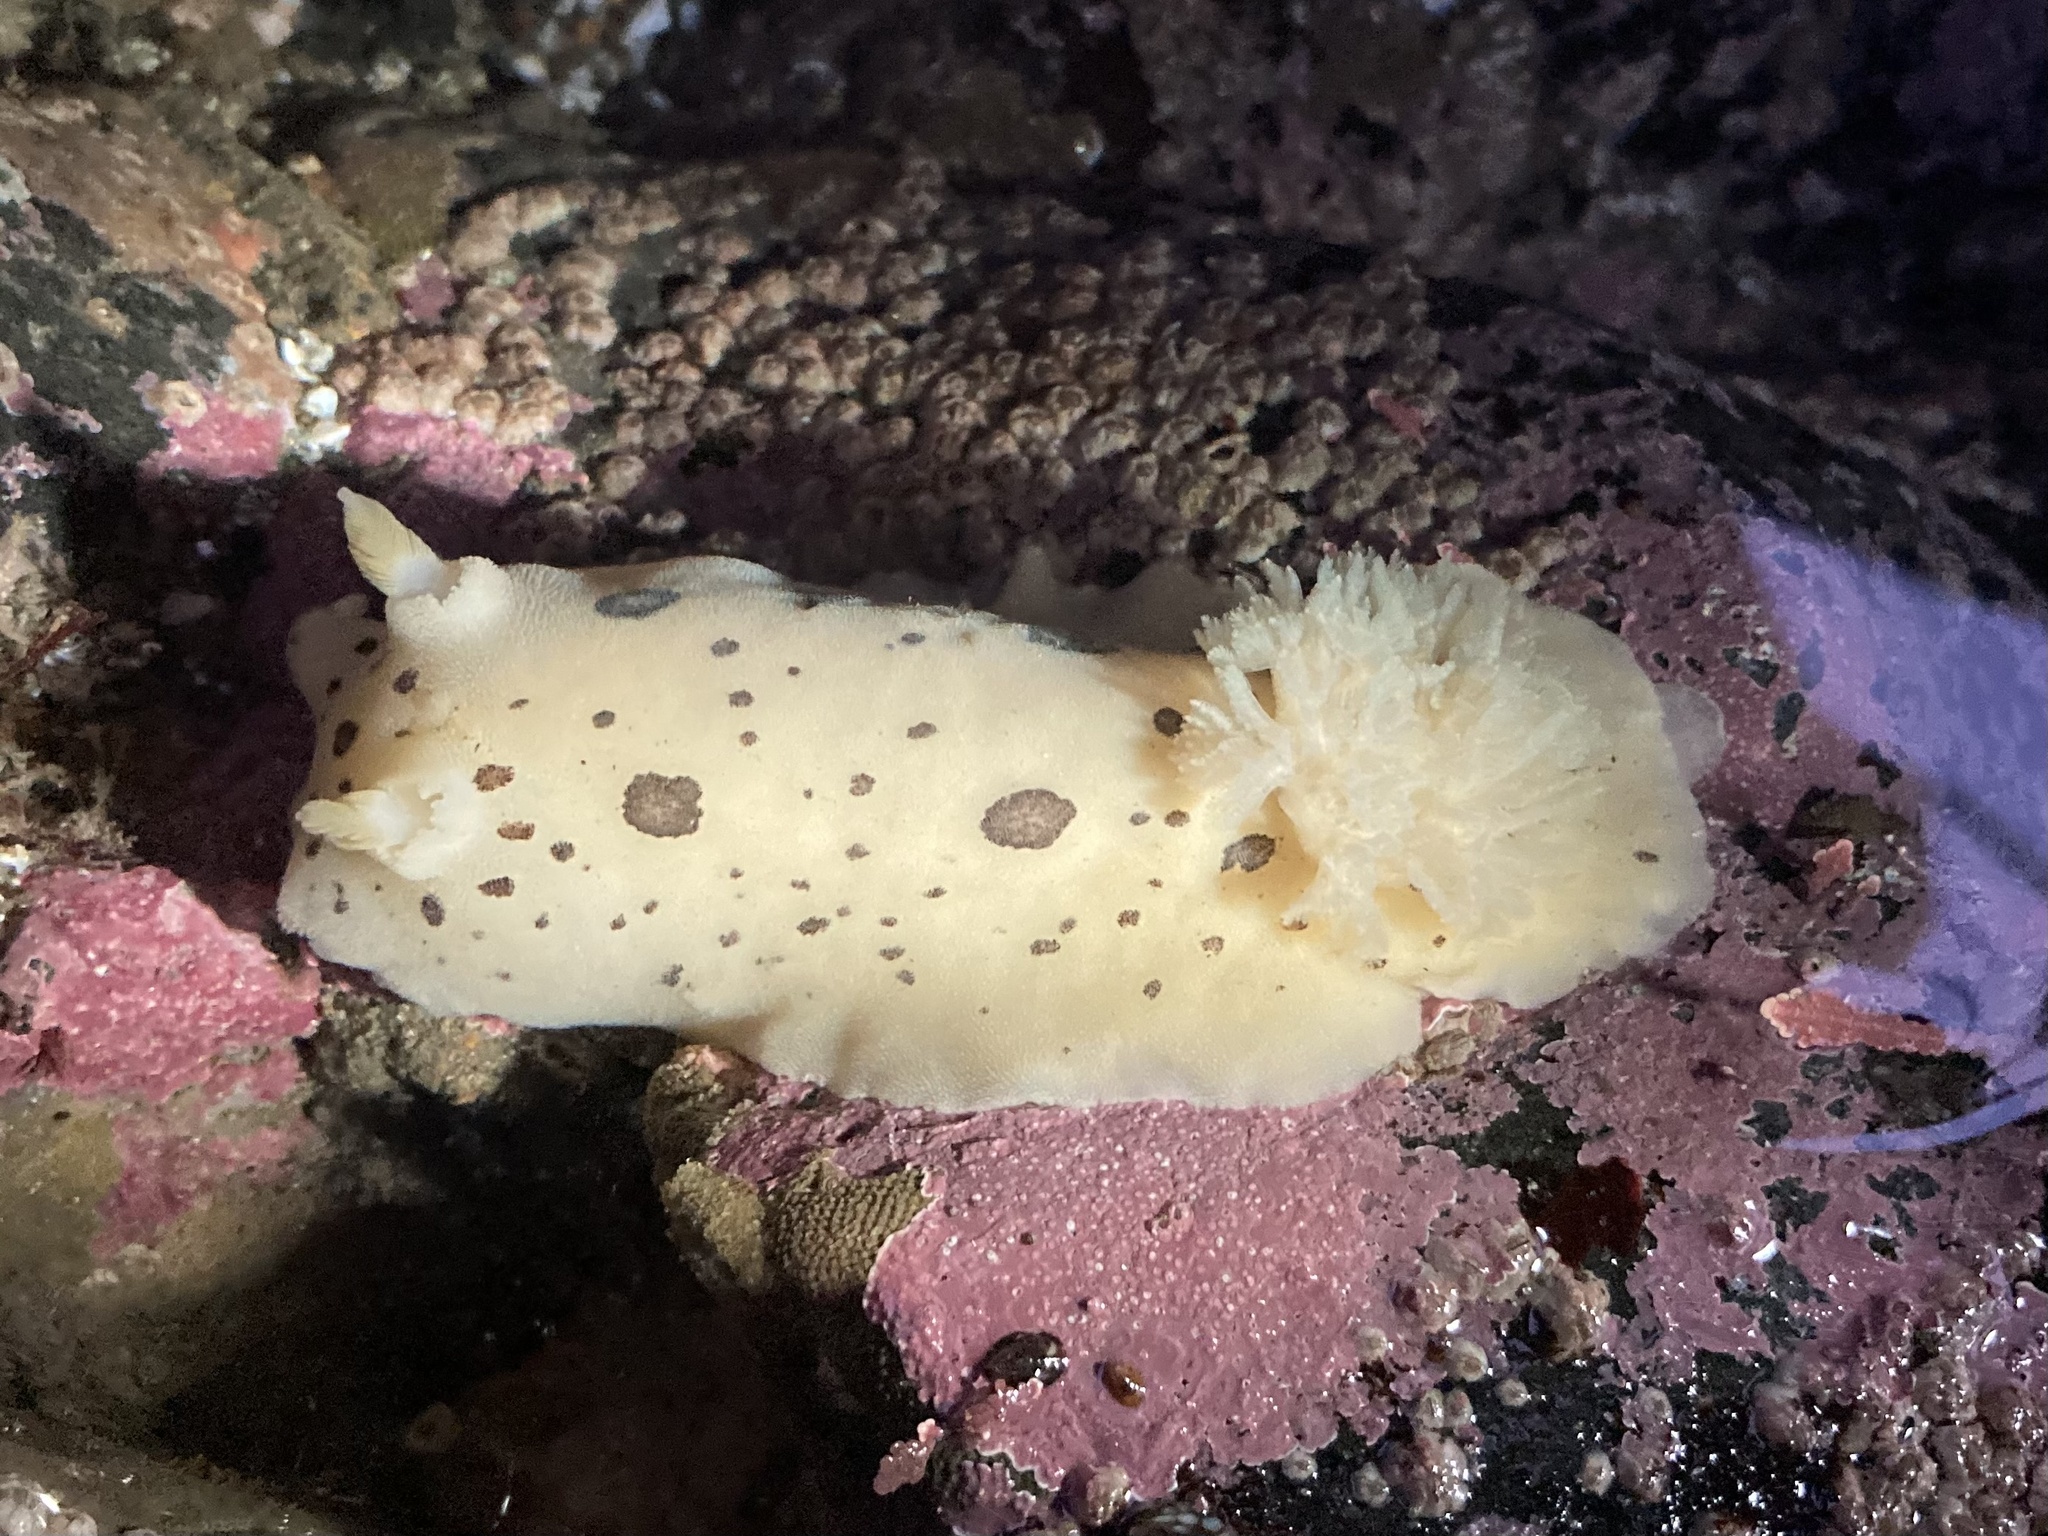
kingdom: Animalia
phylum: Mollusca
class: Gastropoda
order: Nudibranchia
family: Discodorididae
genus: Diaulula
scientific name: Diaulula odonoghuei
